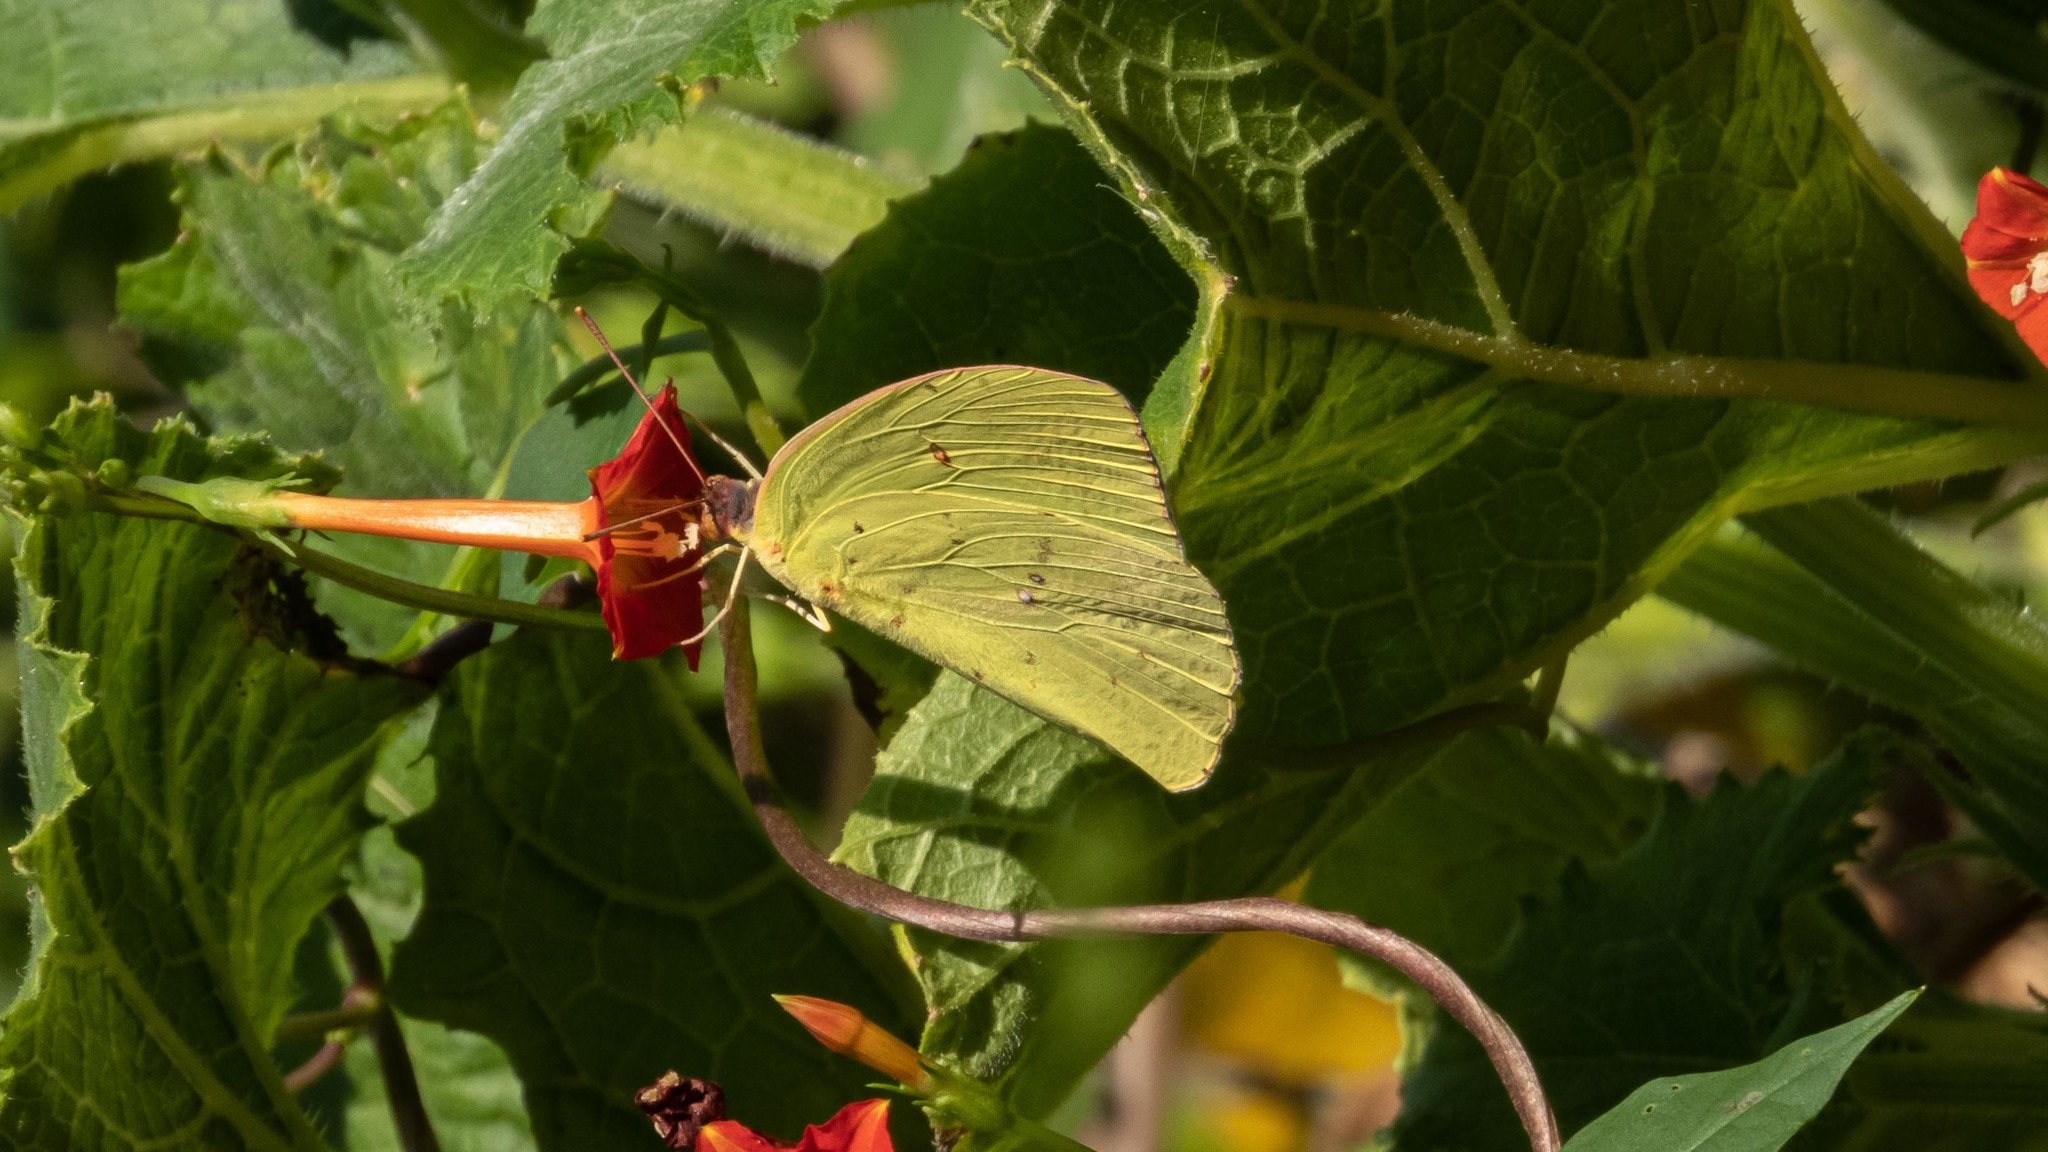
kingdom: Animalia
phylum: Arthropoda
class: Insecta
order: Lepidoptera
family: Pieridae
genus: Phoebis
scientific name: Phoebis sennae
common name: Cloudless sulphur
